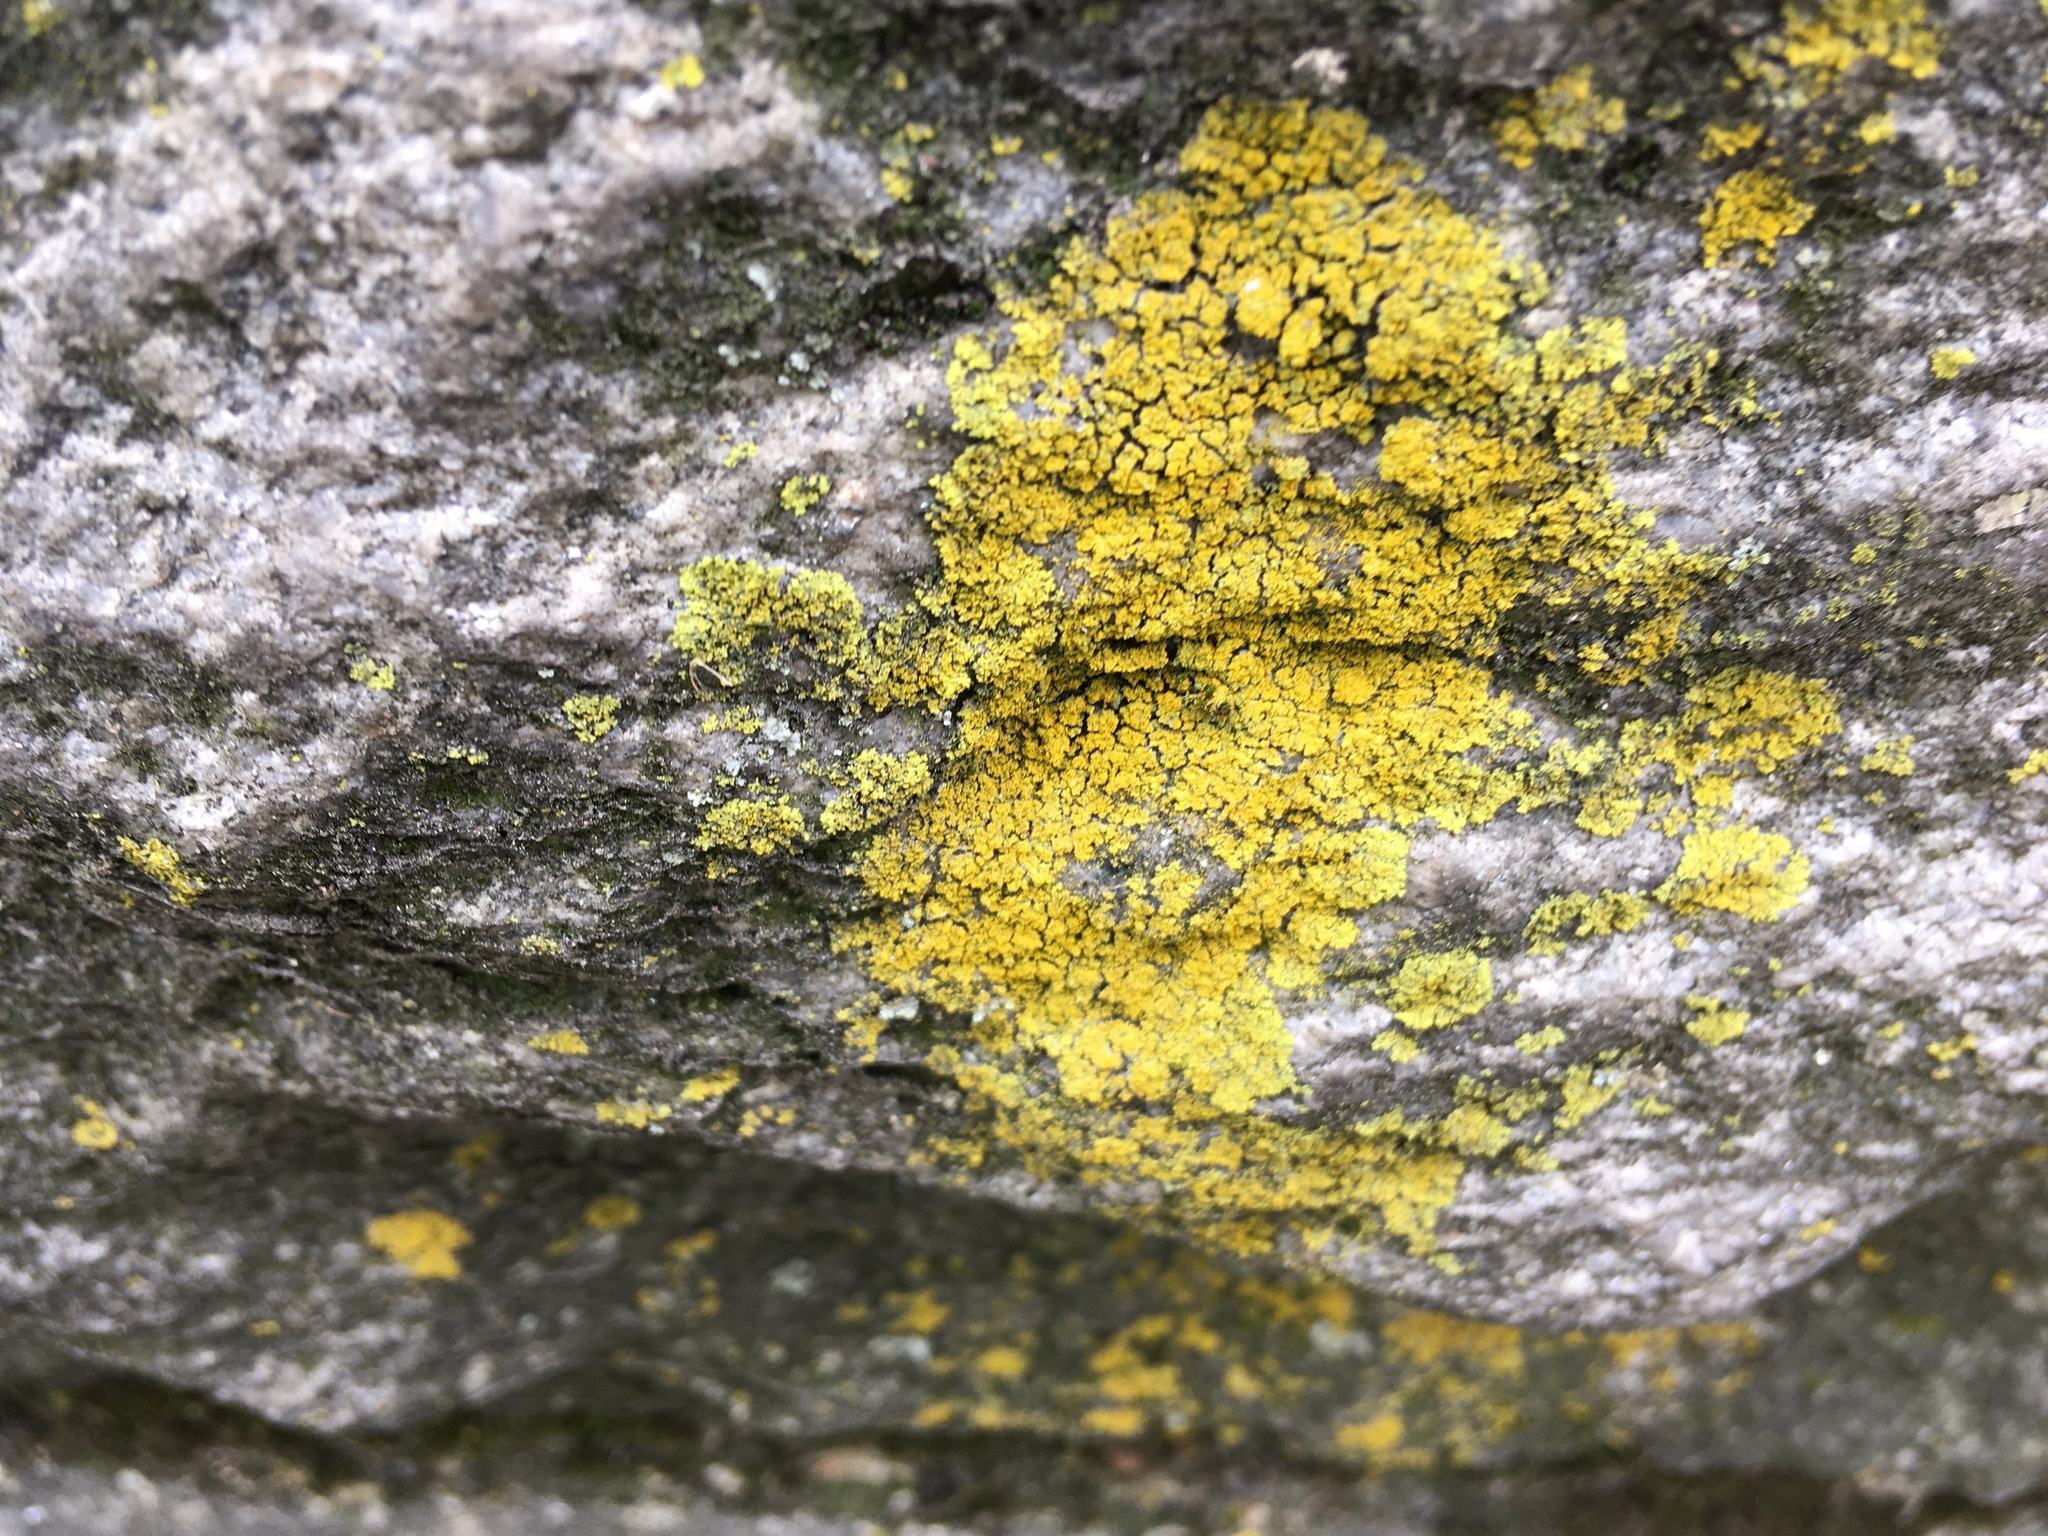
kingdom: Fungi
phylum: Ascomycota
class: Candelariomycetes
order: Candelariales
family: Candelariaceae
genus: Candelaria
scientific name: Candelaria concolor
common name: Candleflame lichen
